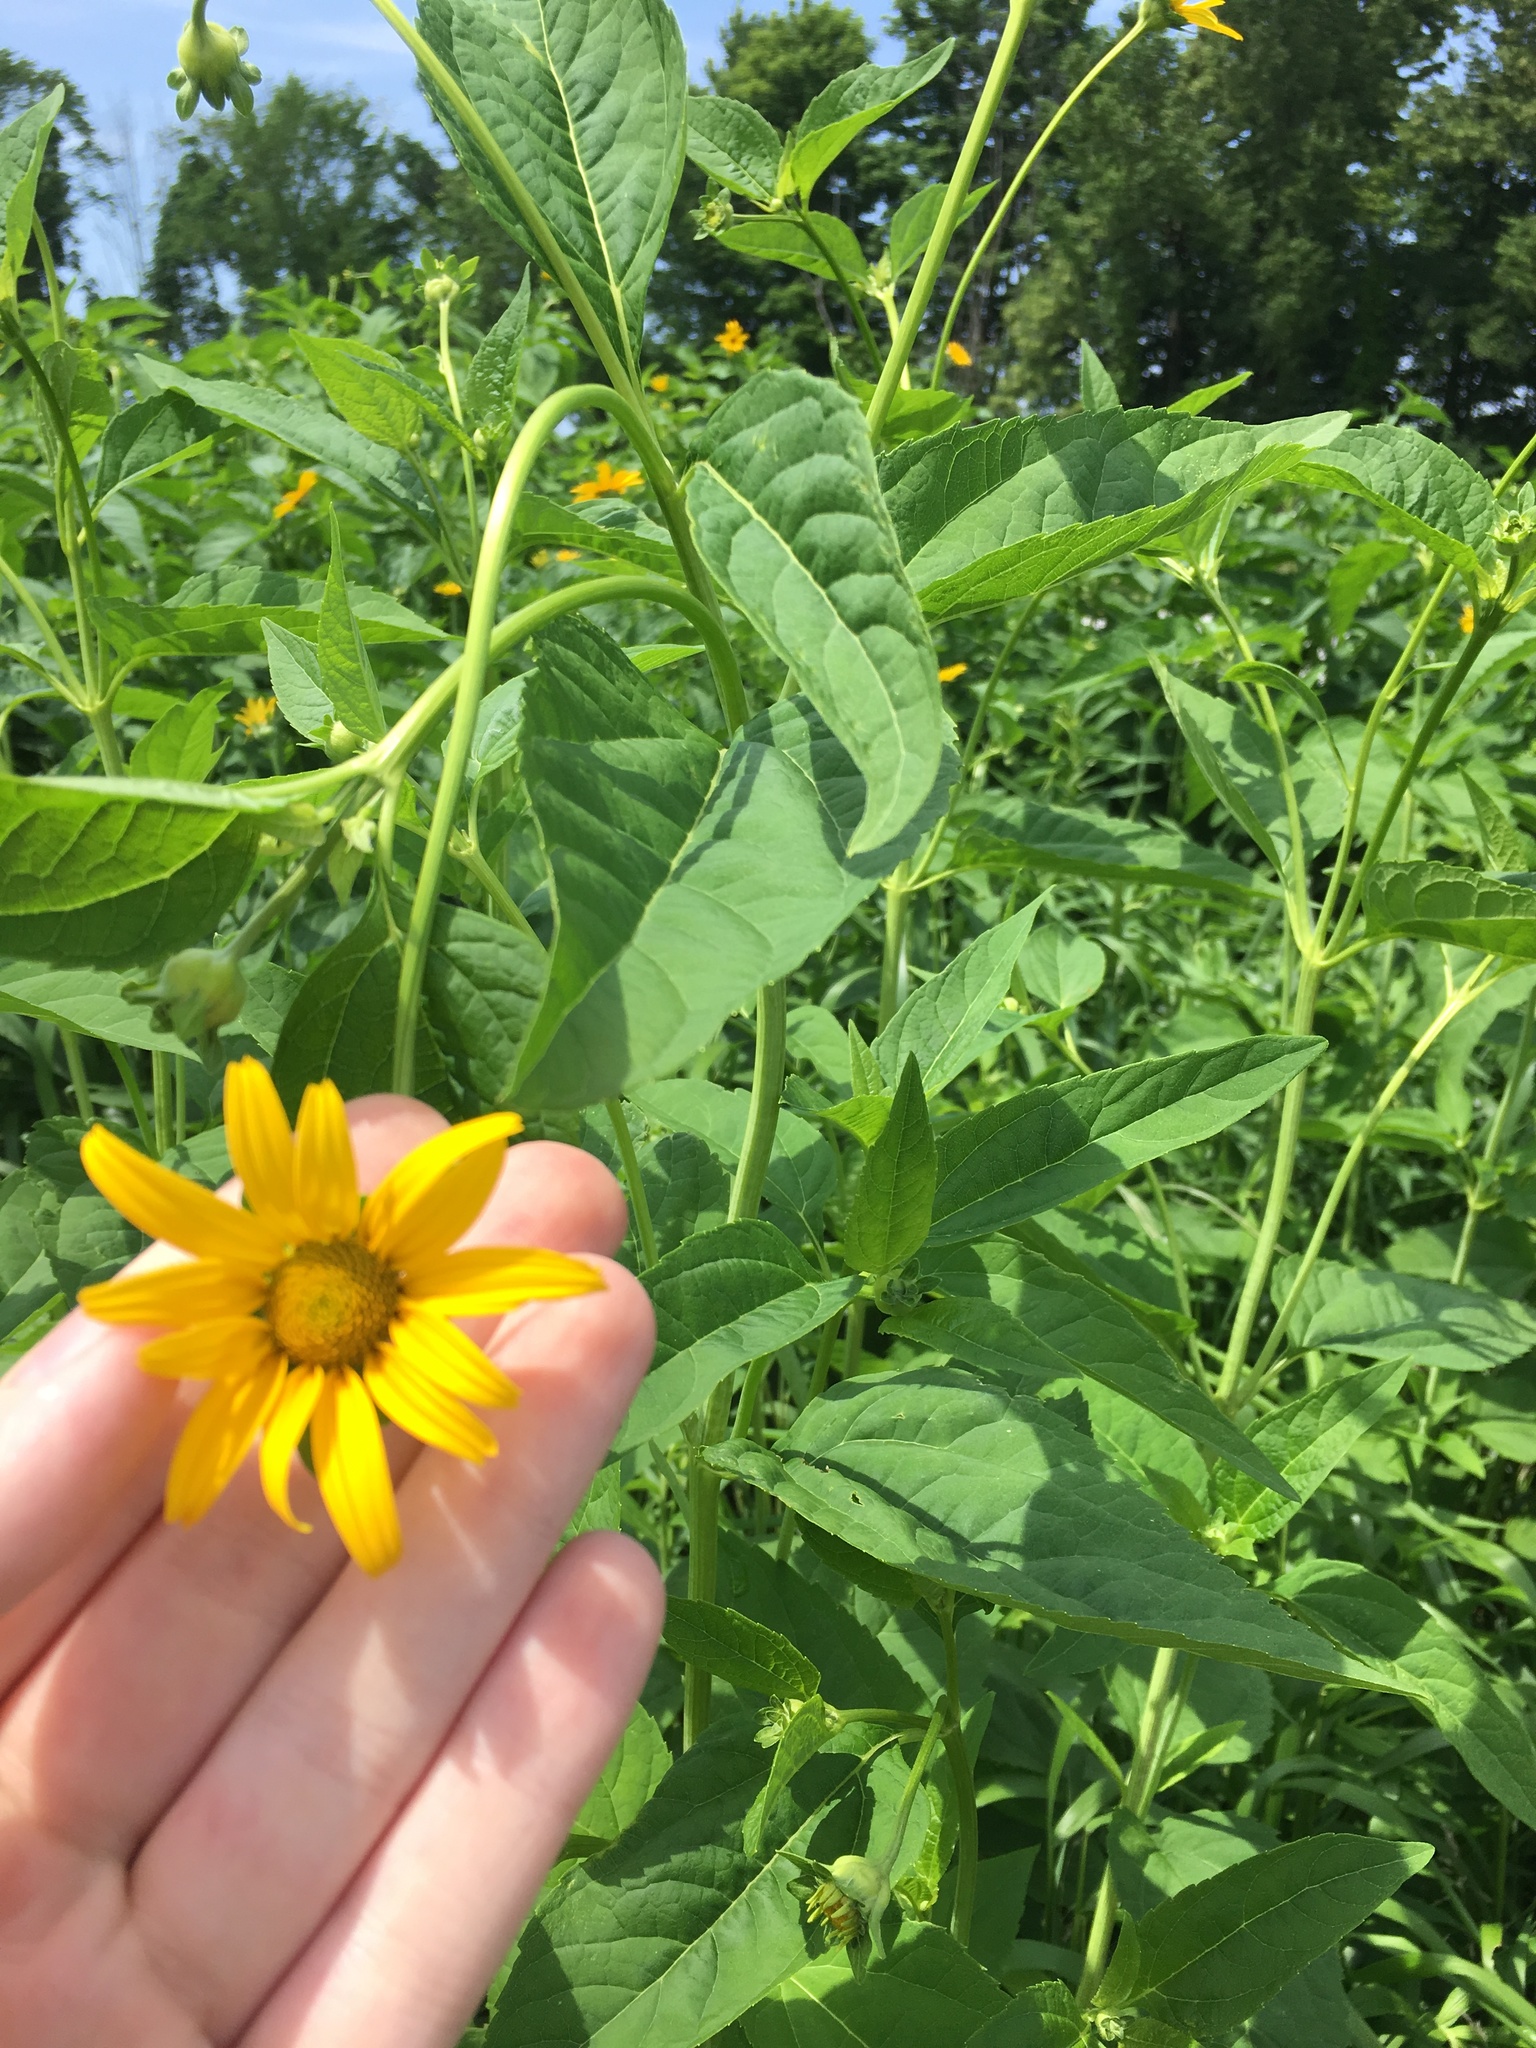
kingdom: Plantae
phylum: Tracheophyta
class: Magnoliopsida
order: Asterales
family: Asteraceae
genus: Heliopsis
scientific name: Heliopsis helianthoides
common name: False sunflower
